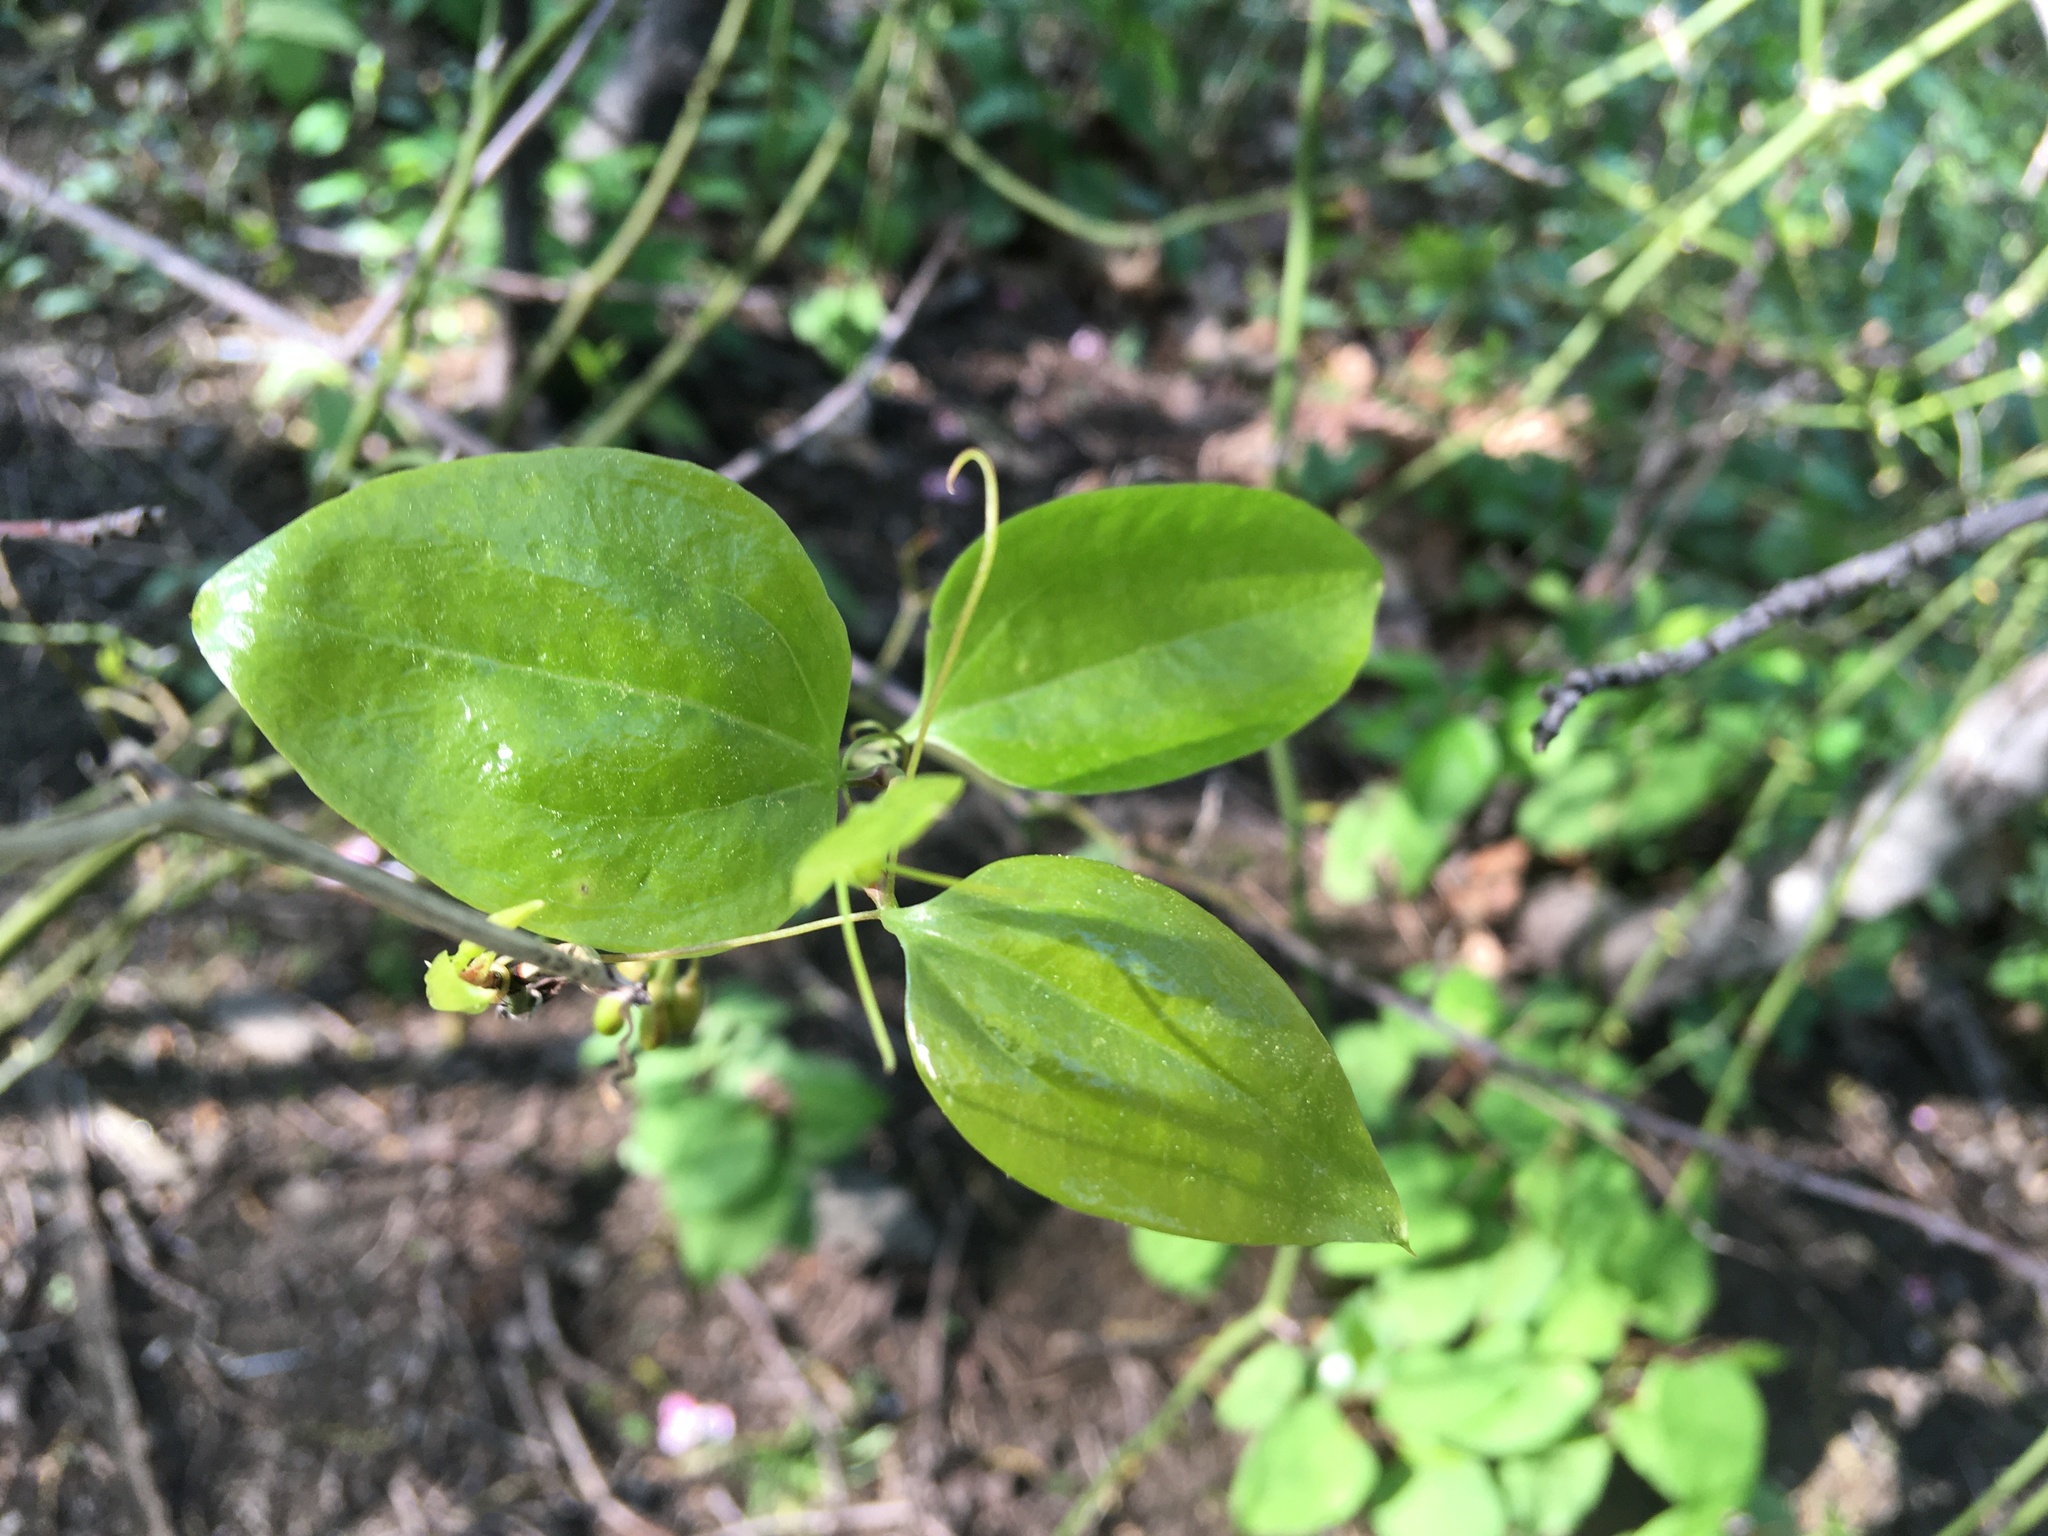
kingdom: Plantae
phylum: Tracheophyta
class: Liliopsida
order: Liliales
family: Smilacaceae
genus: Smilax
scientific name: Smilax rotundifolia
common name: Bullbriar
